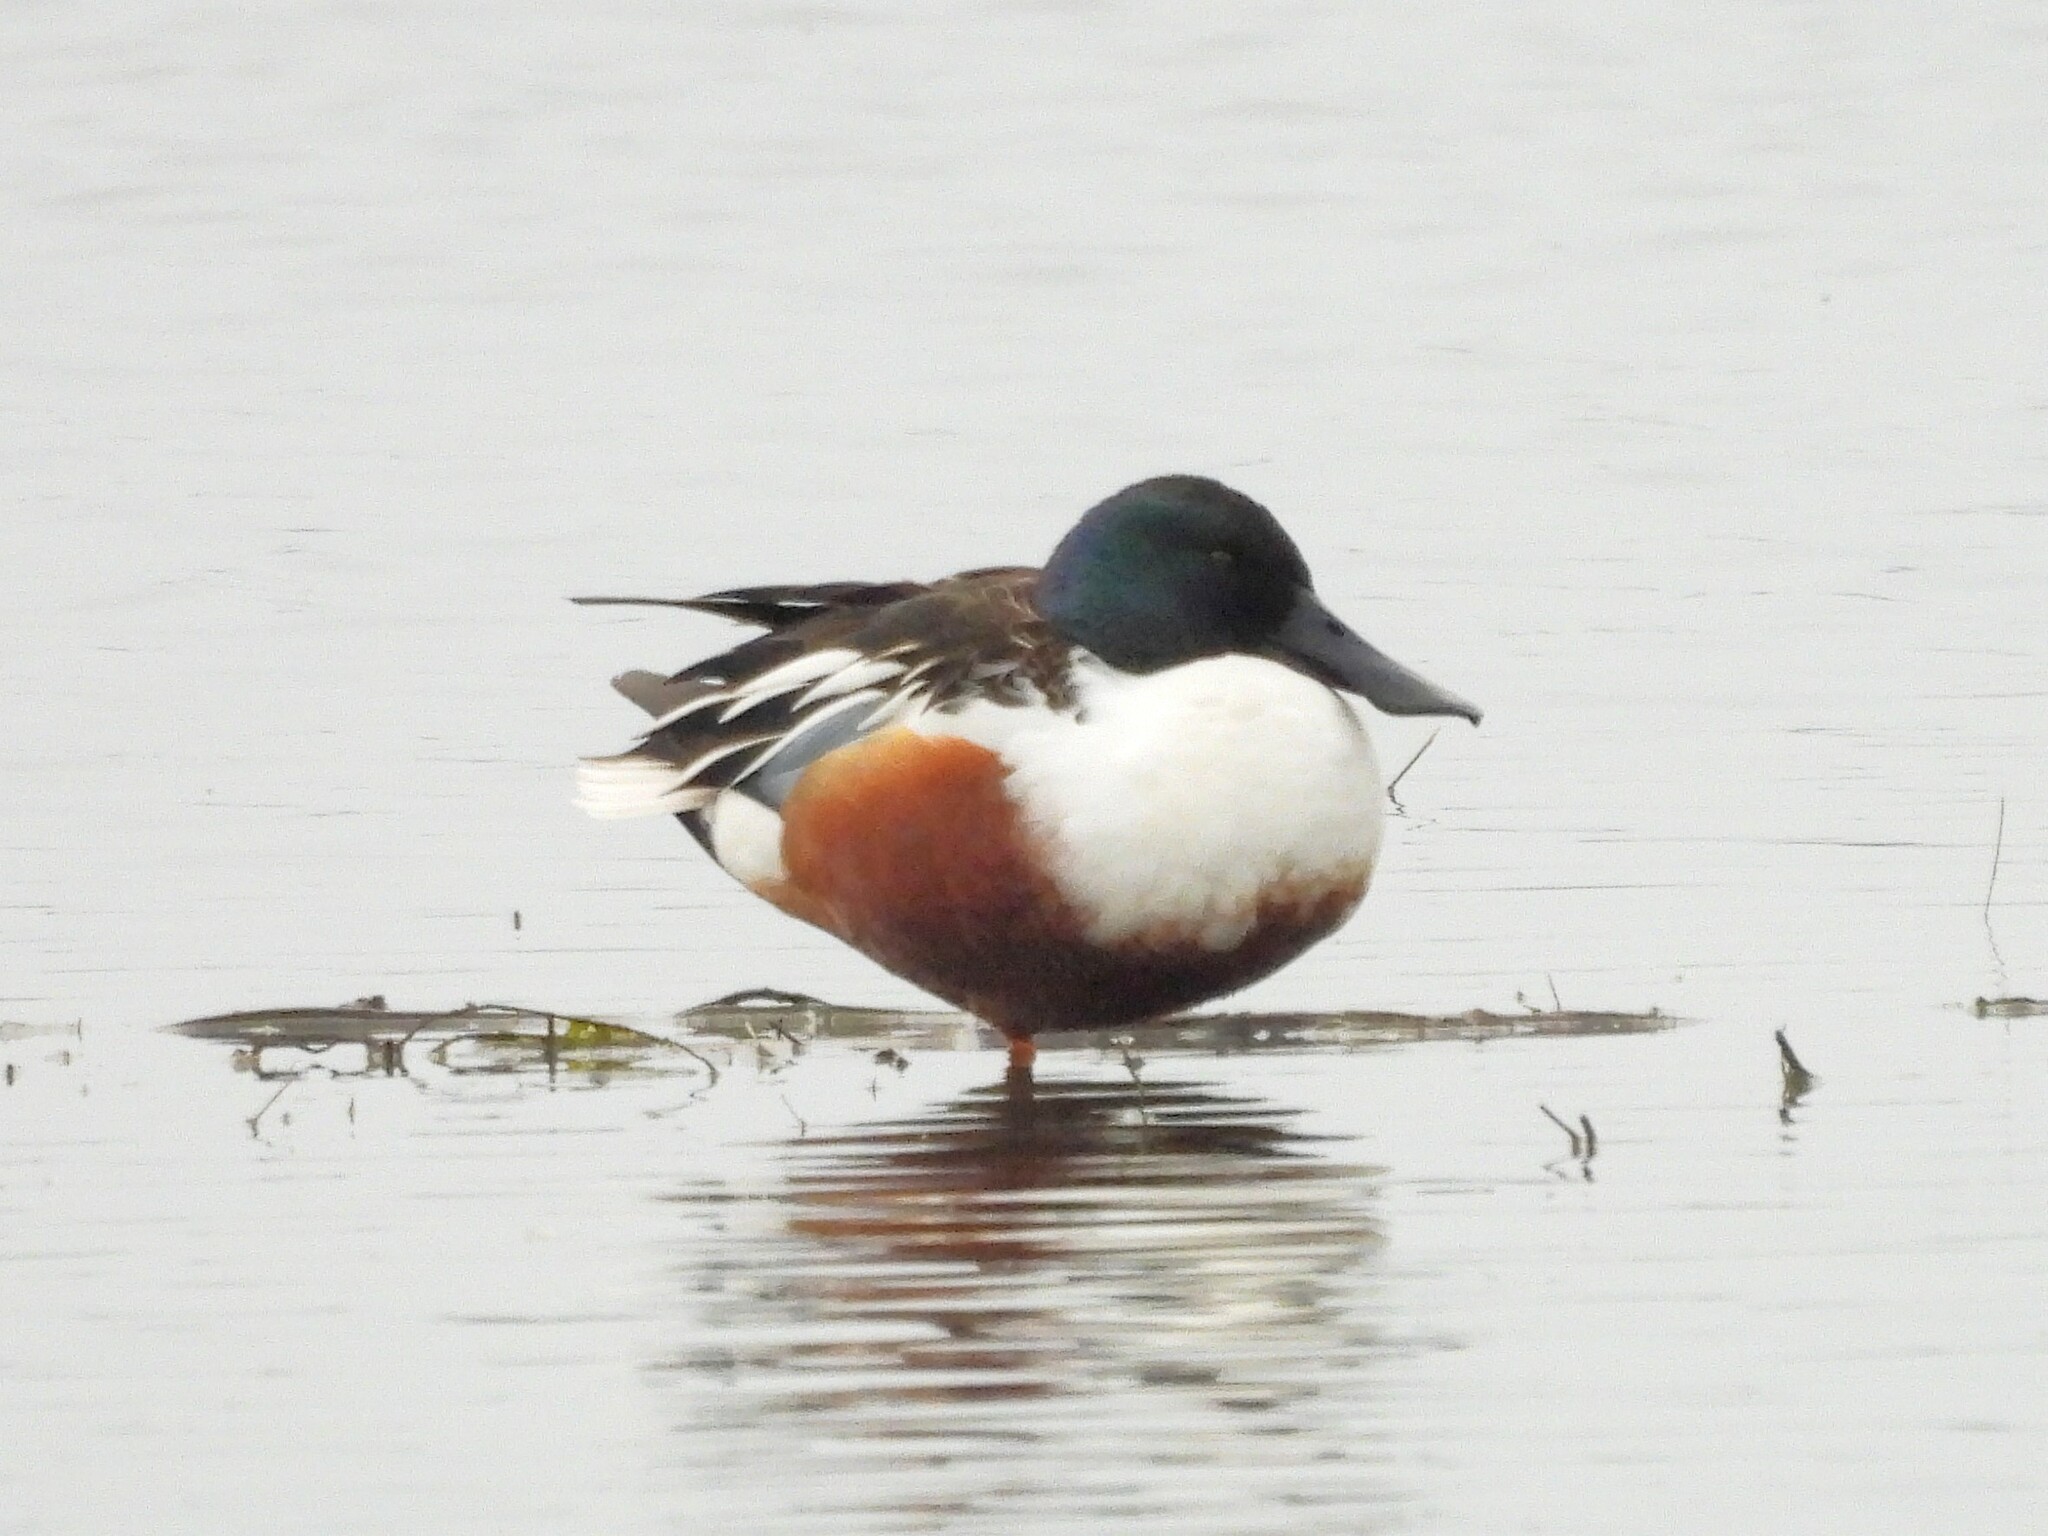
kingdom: Animalia
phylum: Chordata
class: Aves
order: Anseriformes
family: Anatidae
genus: Spatula
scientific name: Spatula clypeata
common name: Northern shoveler
